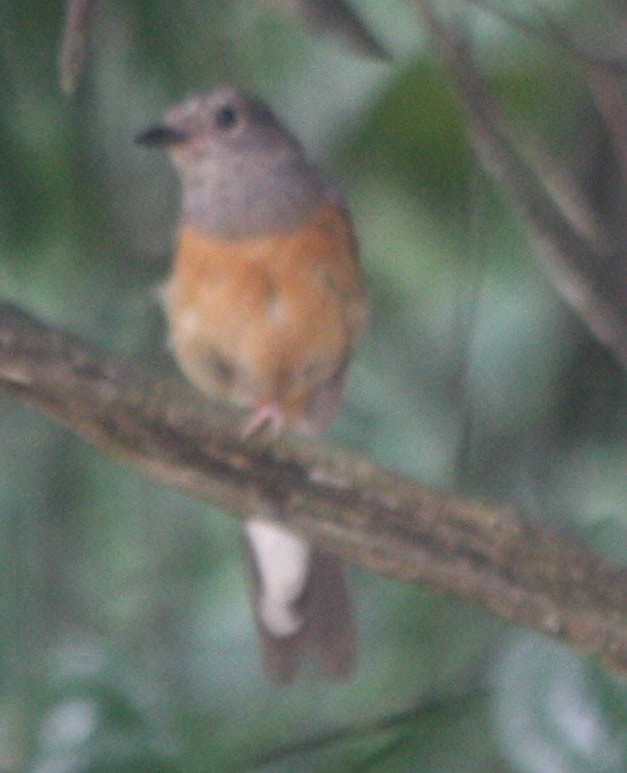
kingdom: Animalia
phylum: Chordata
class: Aves
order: Passeriformes
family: Muscicapidae
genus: Copsychus
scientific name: Copsychus malabaricus
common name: White-rumped shama
